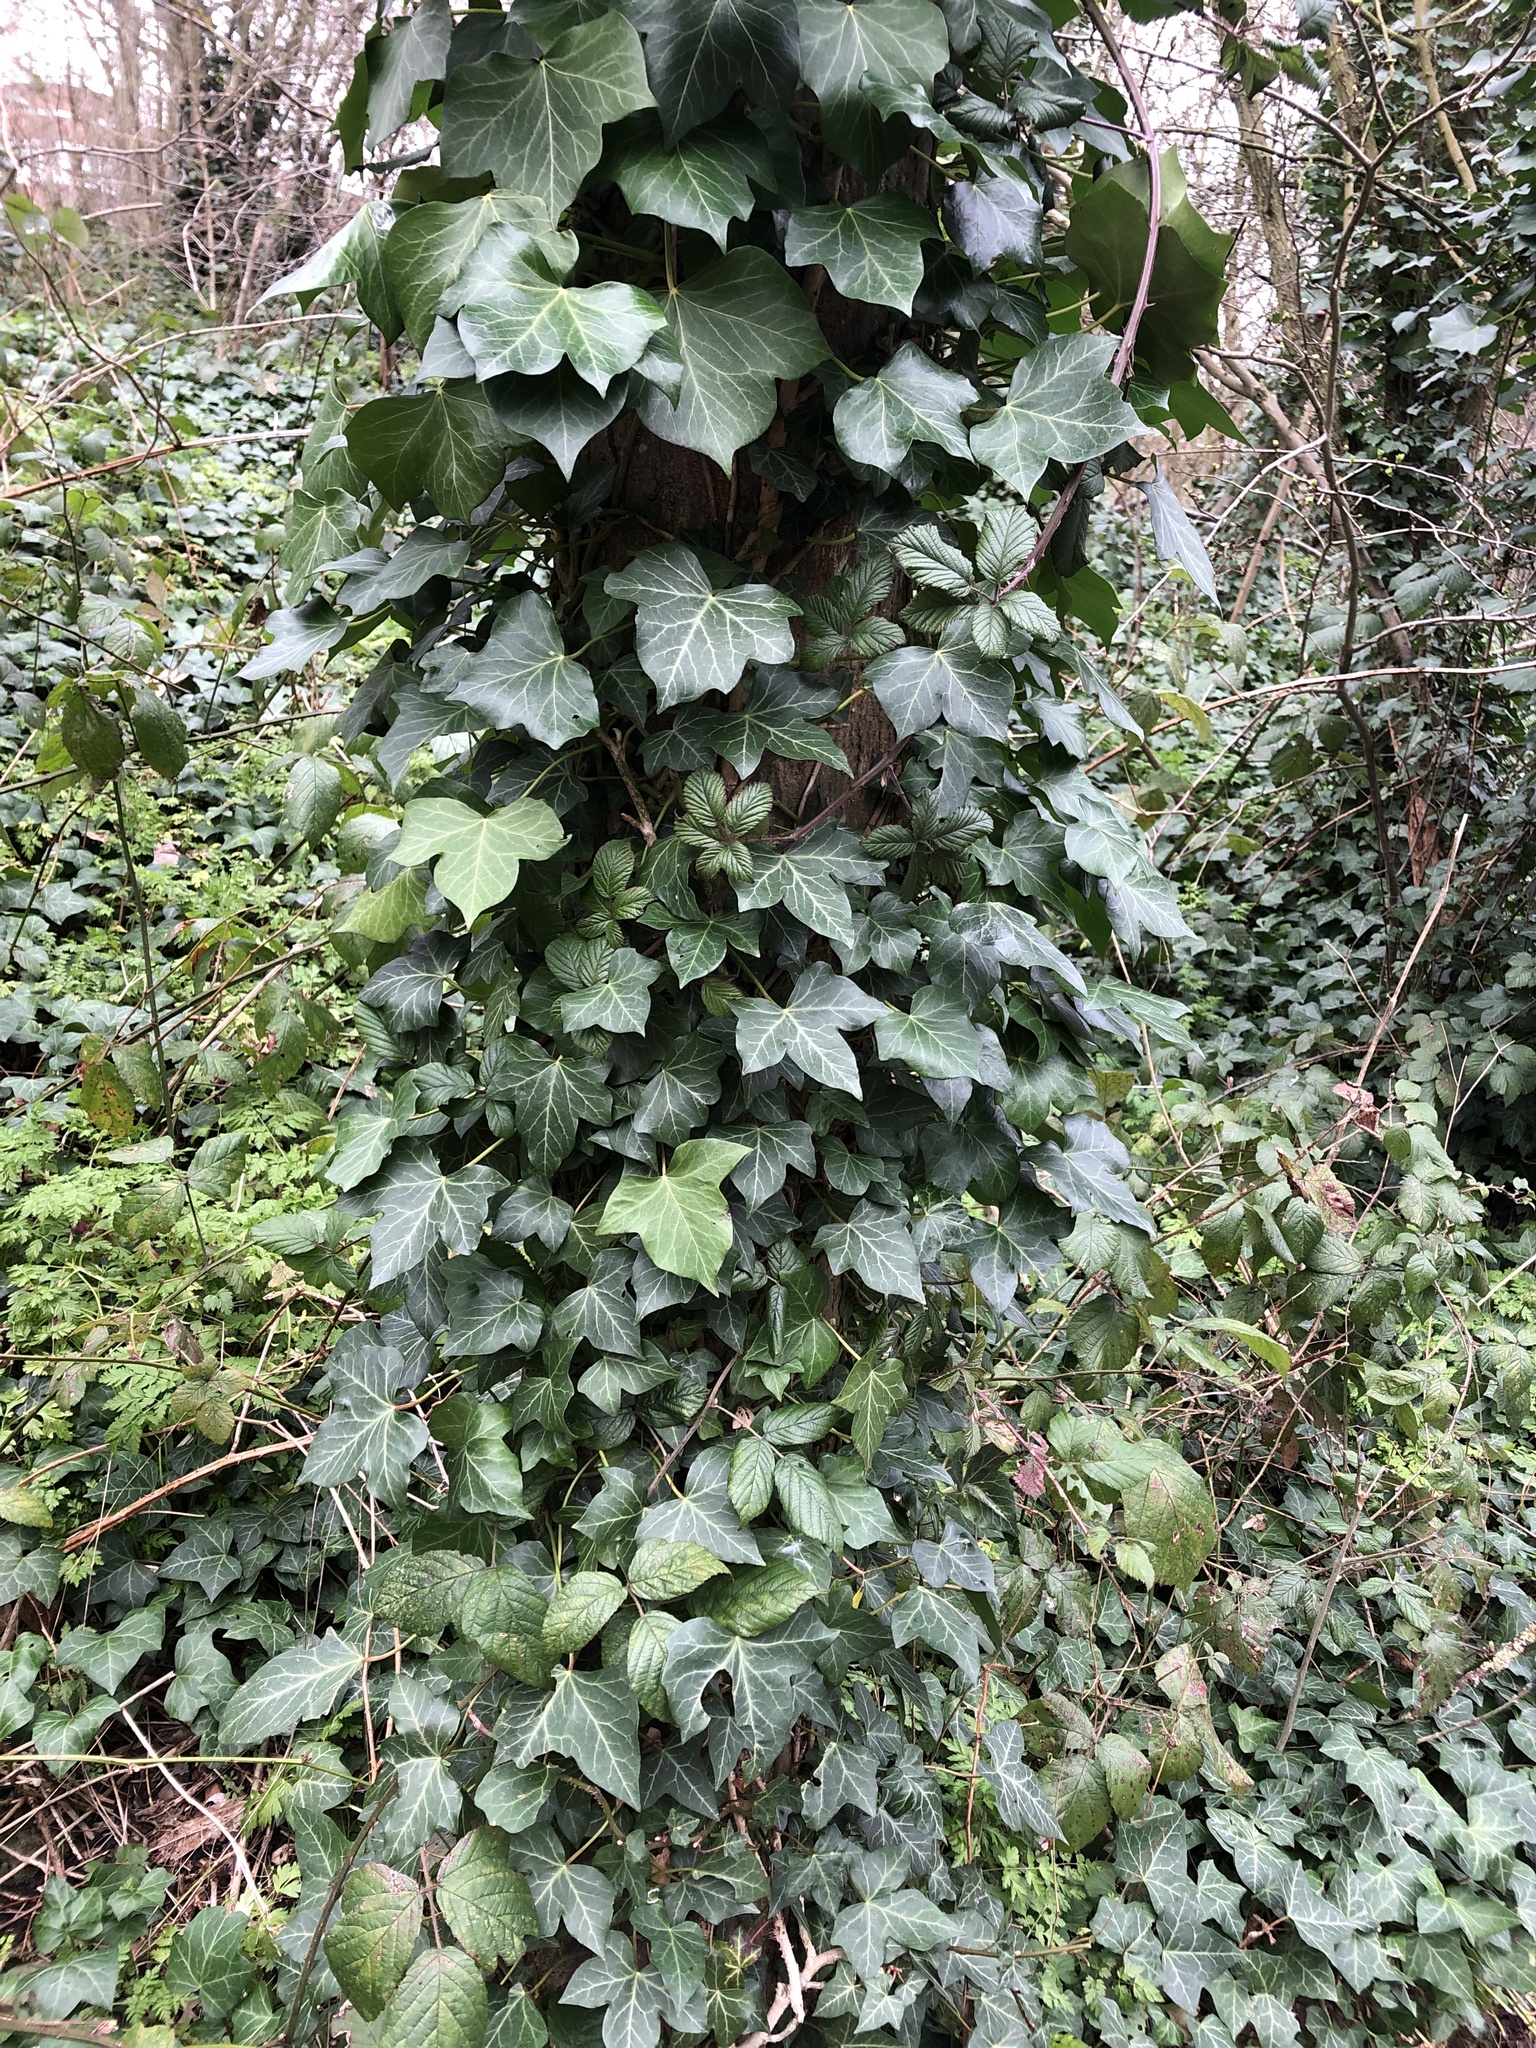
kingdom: Plantae
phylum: Tracheophyta
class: Magnoliopsida
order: Apiales
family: Araliaceae
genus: Hedera
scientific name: Hedera helix
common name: Ivy
